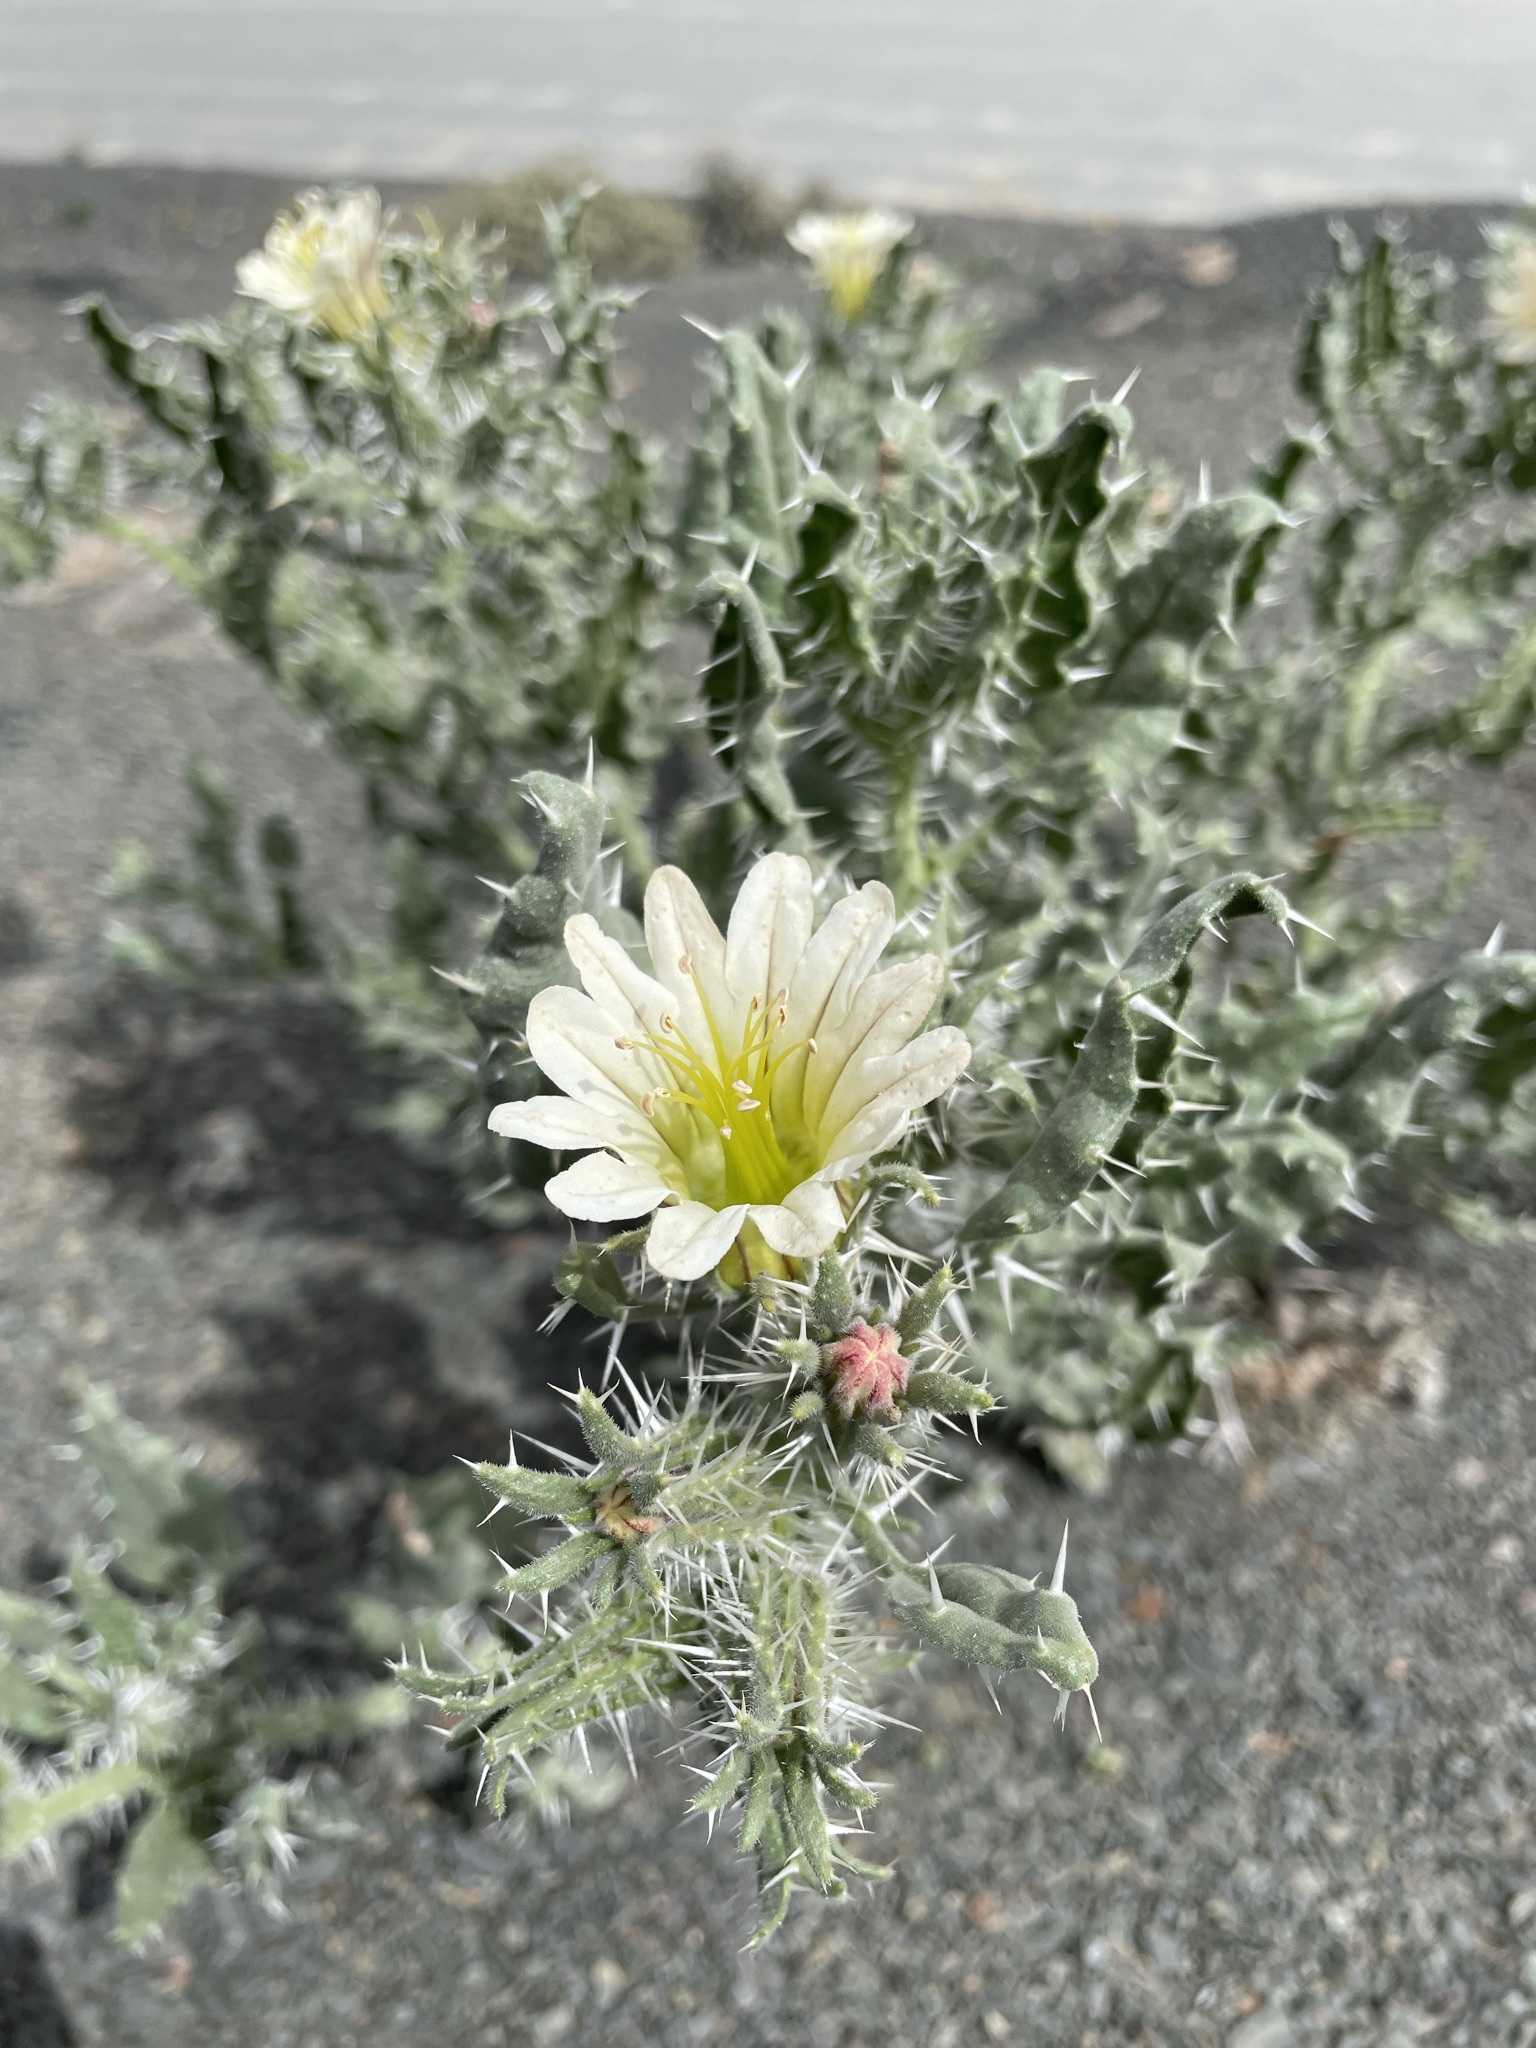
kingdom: Plantae
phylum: Tracheophyta
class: Magnoliopsida
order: Boraginales
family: Boraginaceae
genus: Codon
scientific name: Codon royenii
